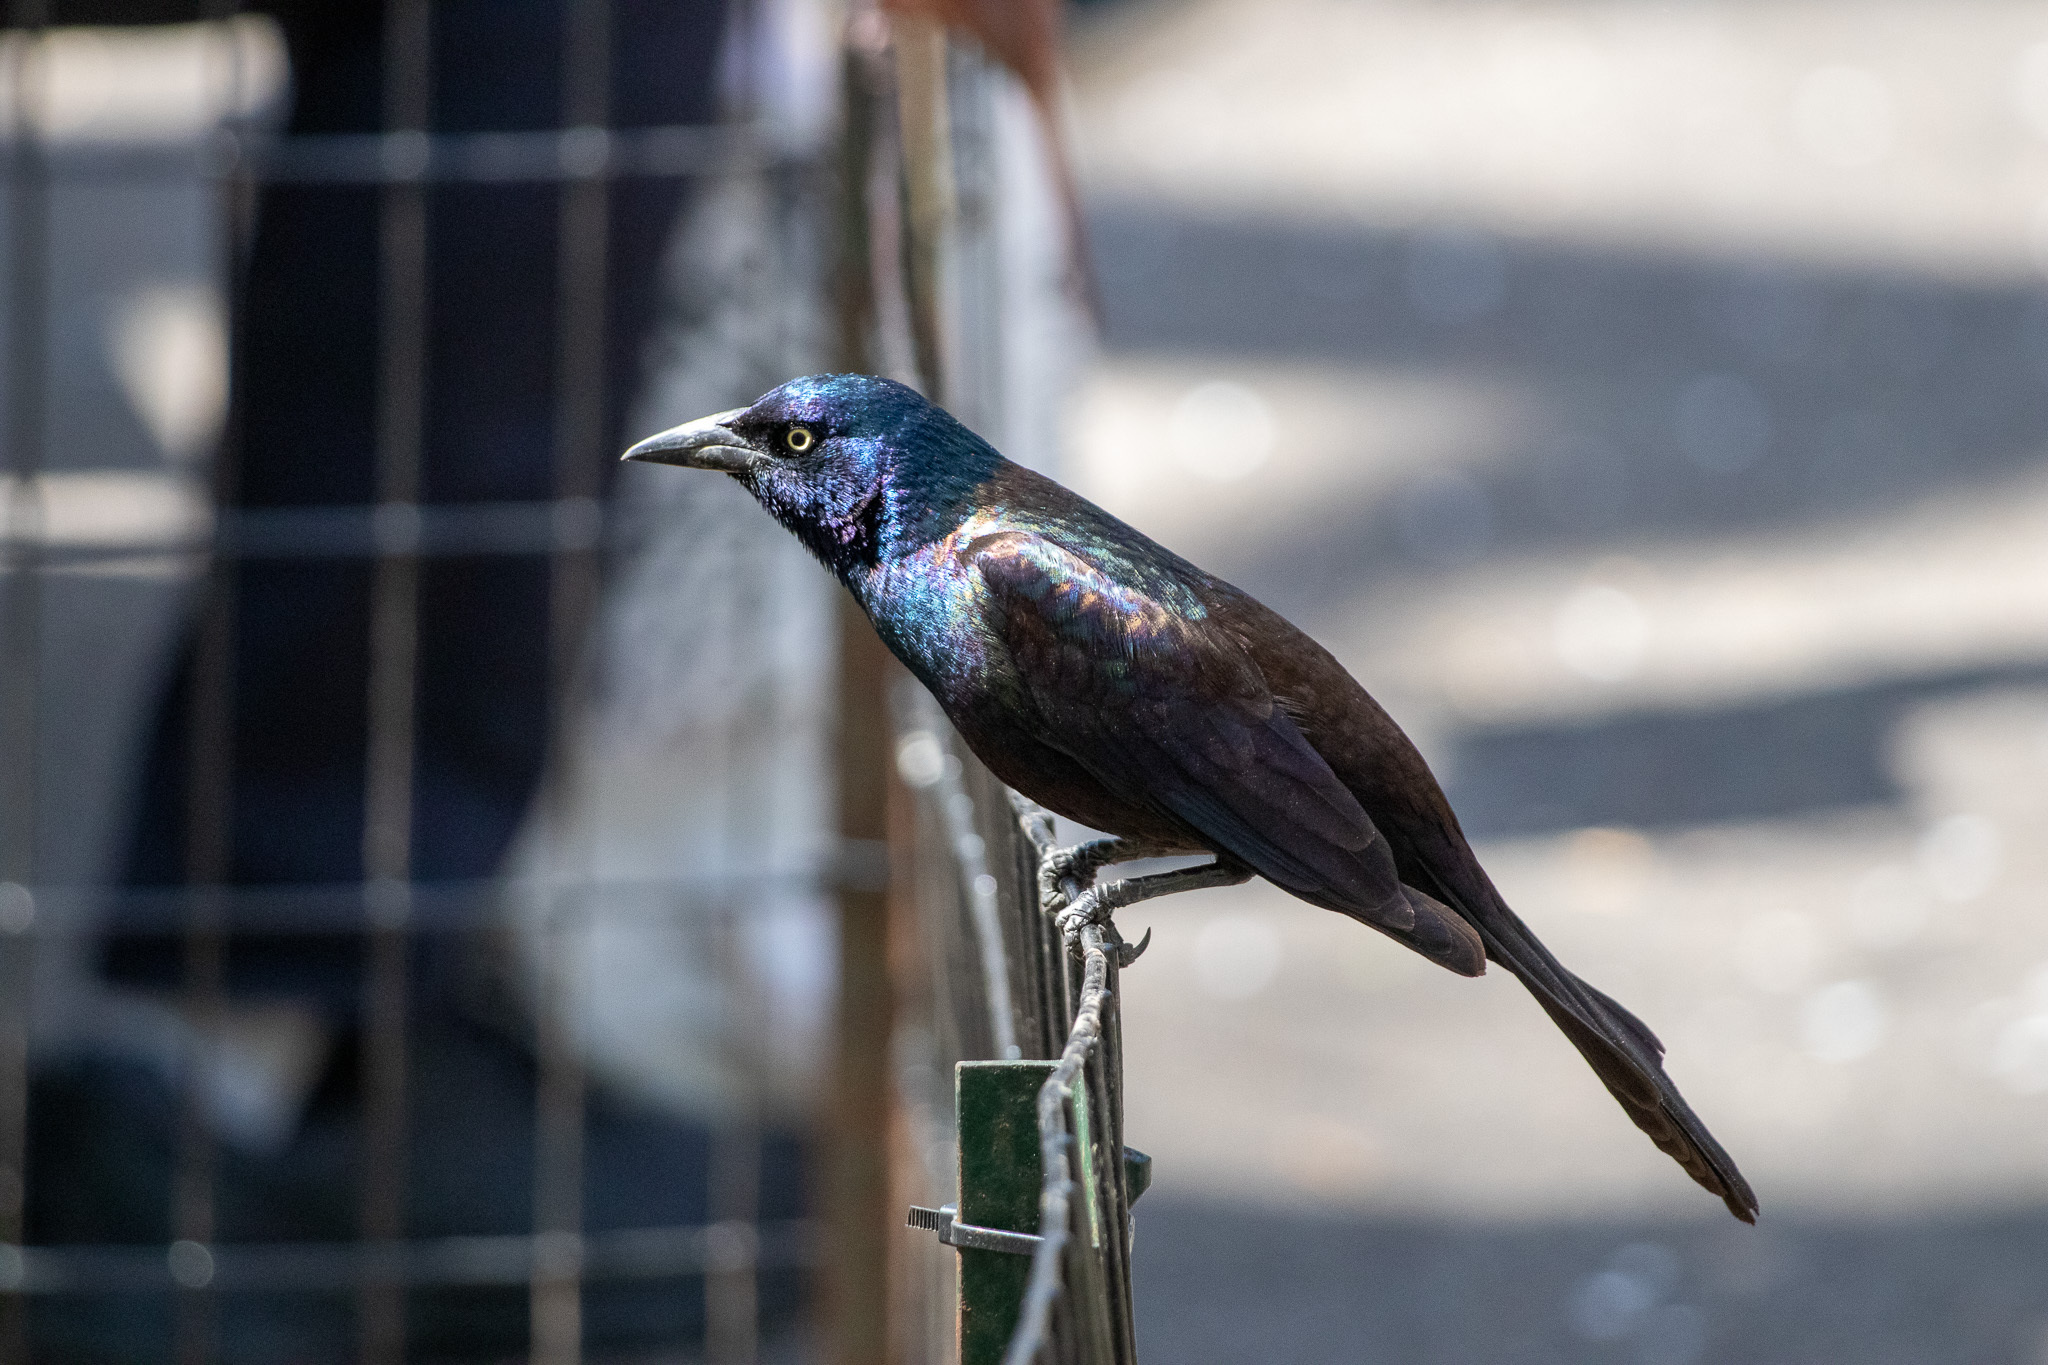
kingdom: Animalia
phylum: Chordata
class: Aves
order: Passeriformes
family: Icteridae
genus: Quiscalus
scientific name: Quiscalus quiscula
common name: Common grackle
